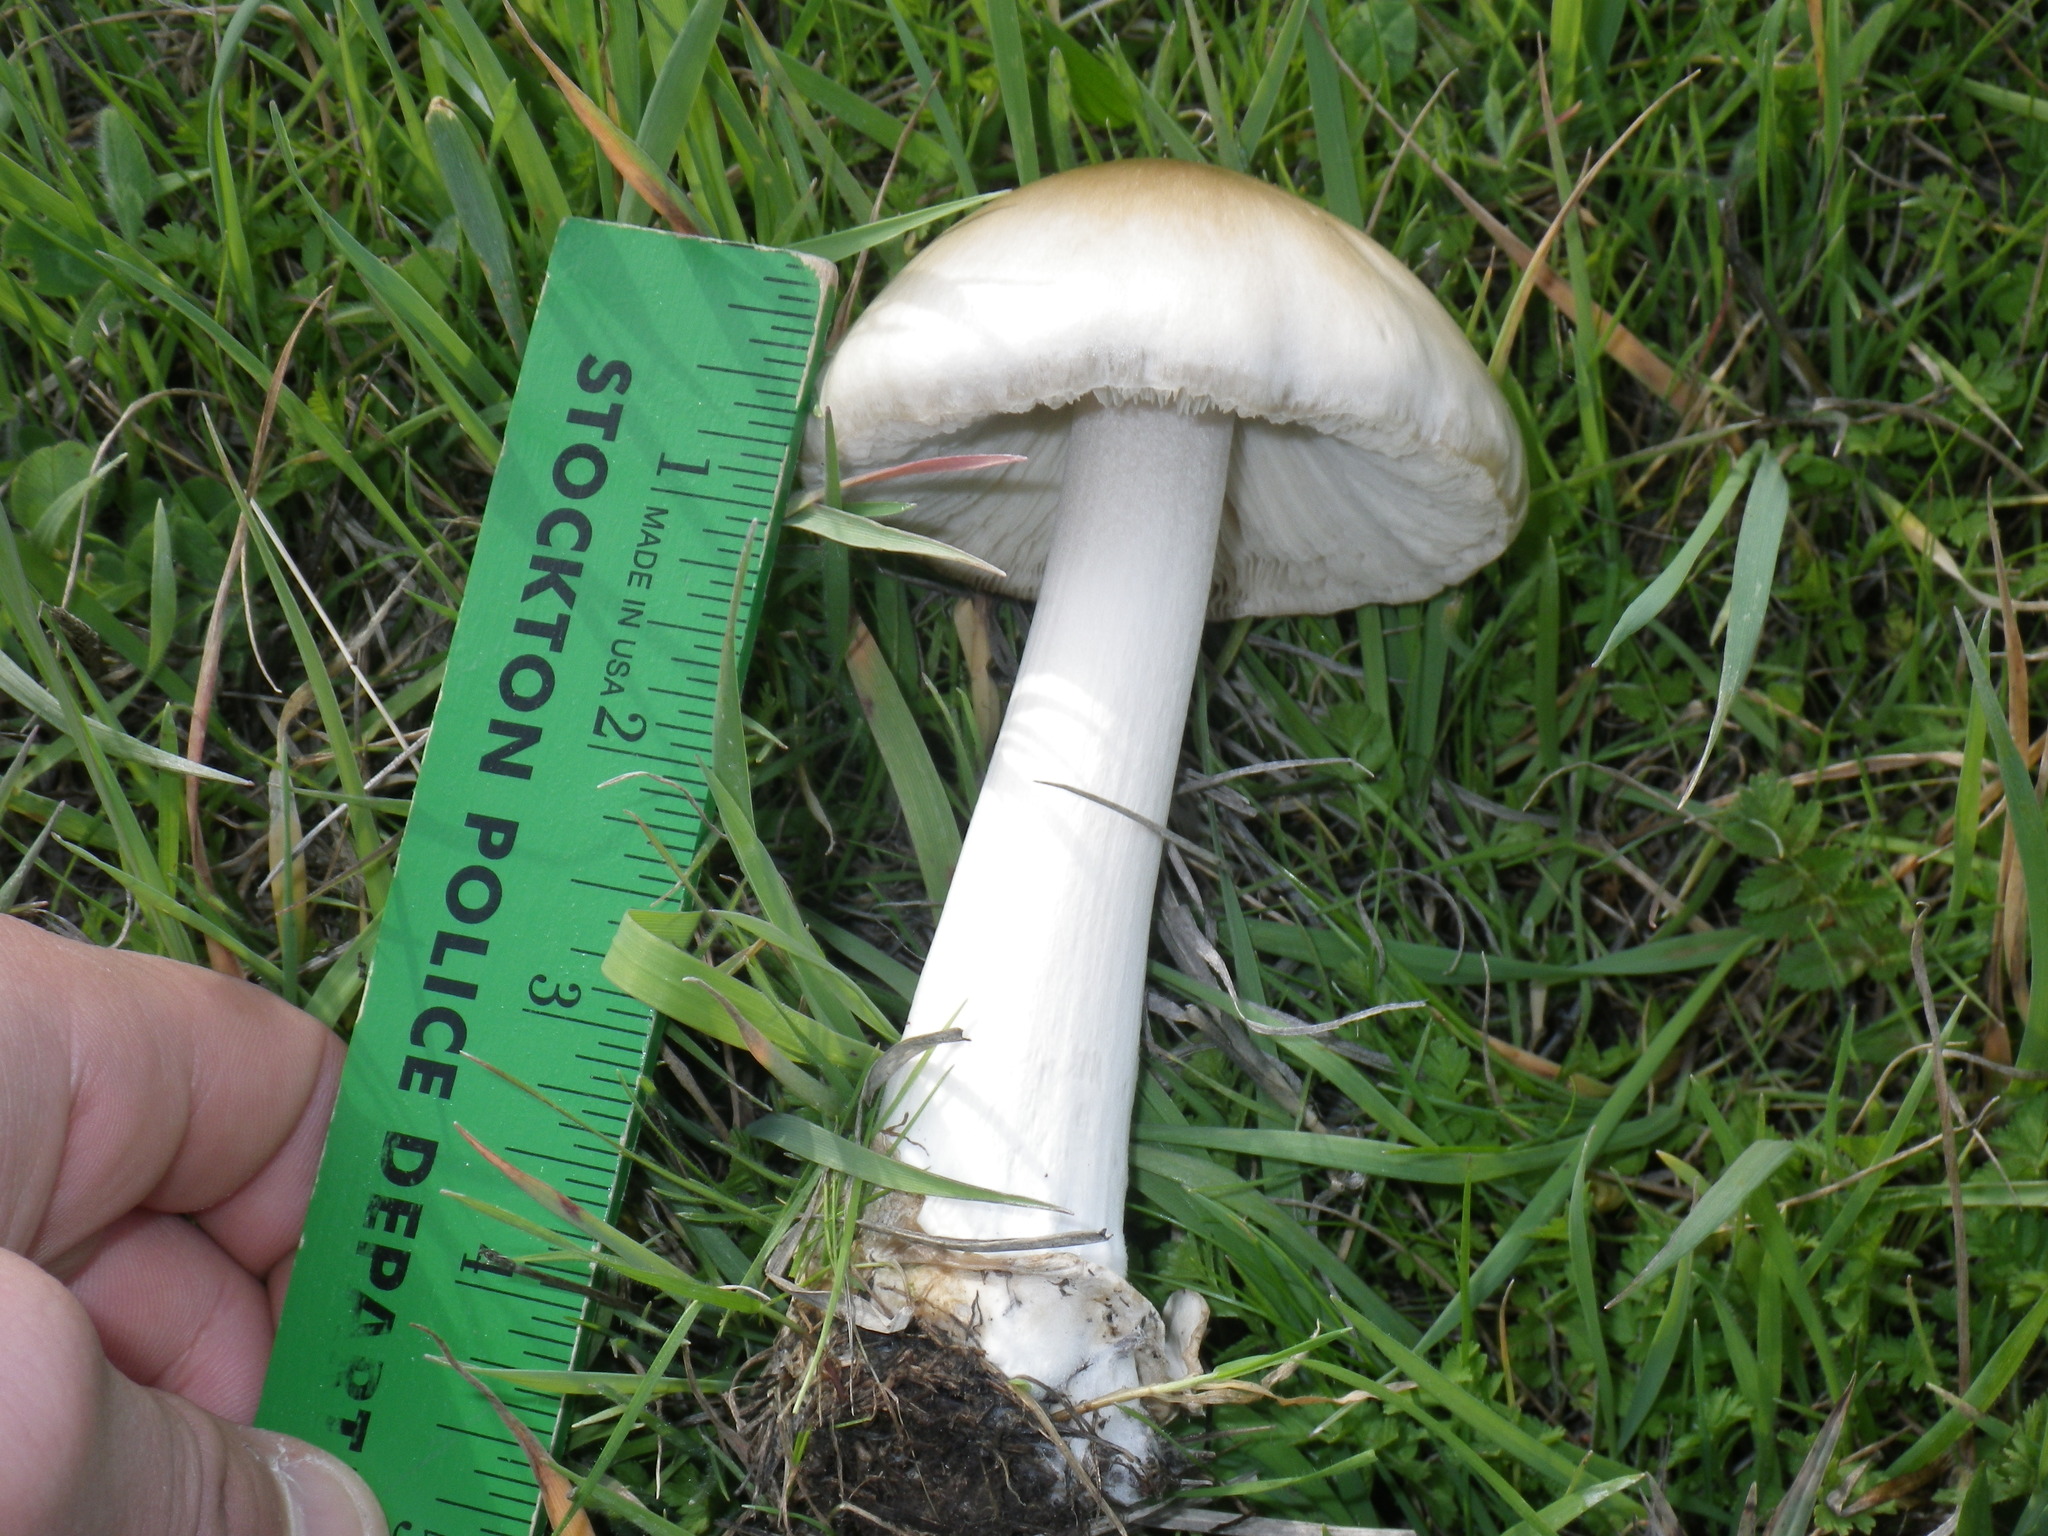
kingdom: Fungi
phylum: Basidiomycota
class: Agaricomycetes
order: Agaricales
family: Pluteaceae
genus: Volvopluteus
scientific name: Volvopluteus gloiocephalus
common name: Stubble rosegill
